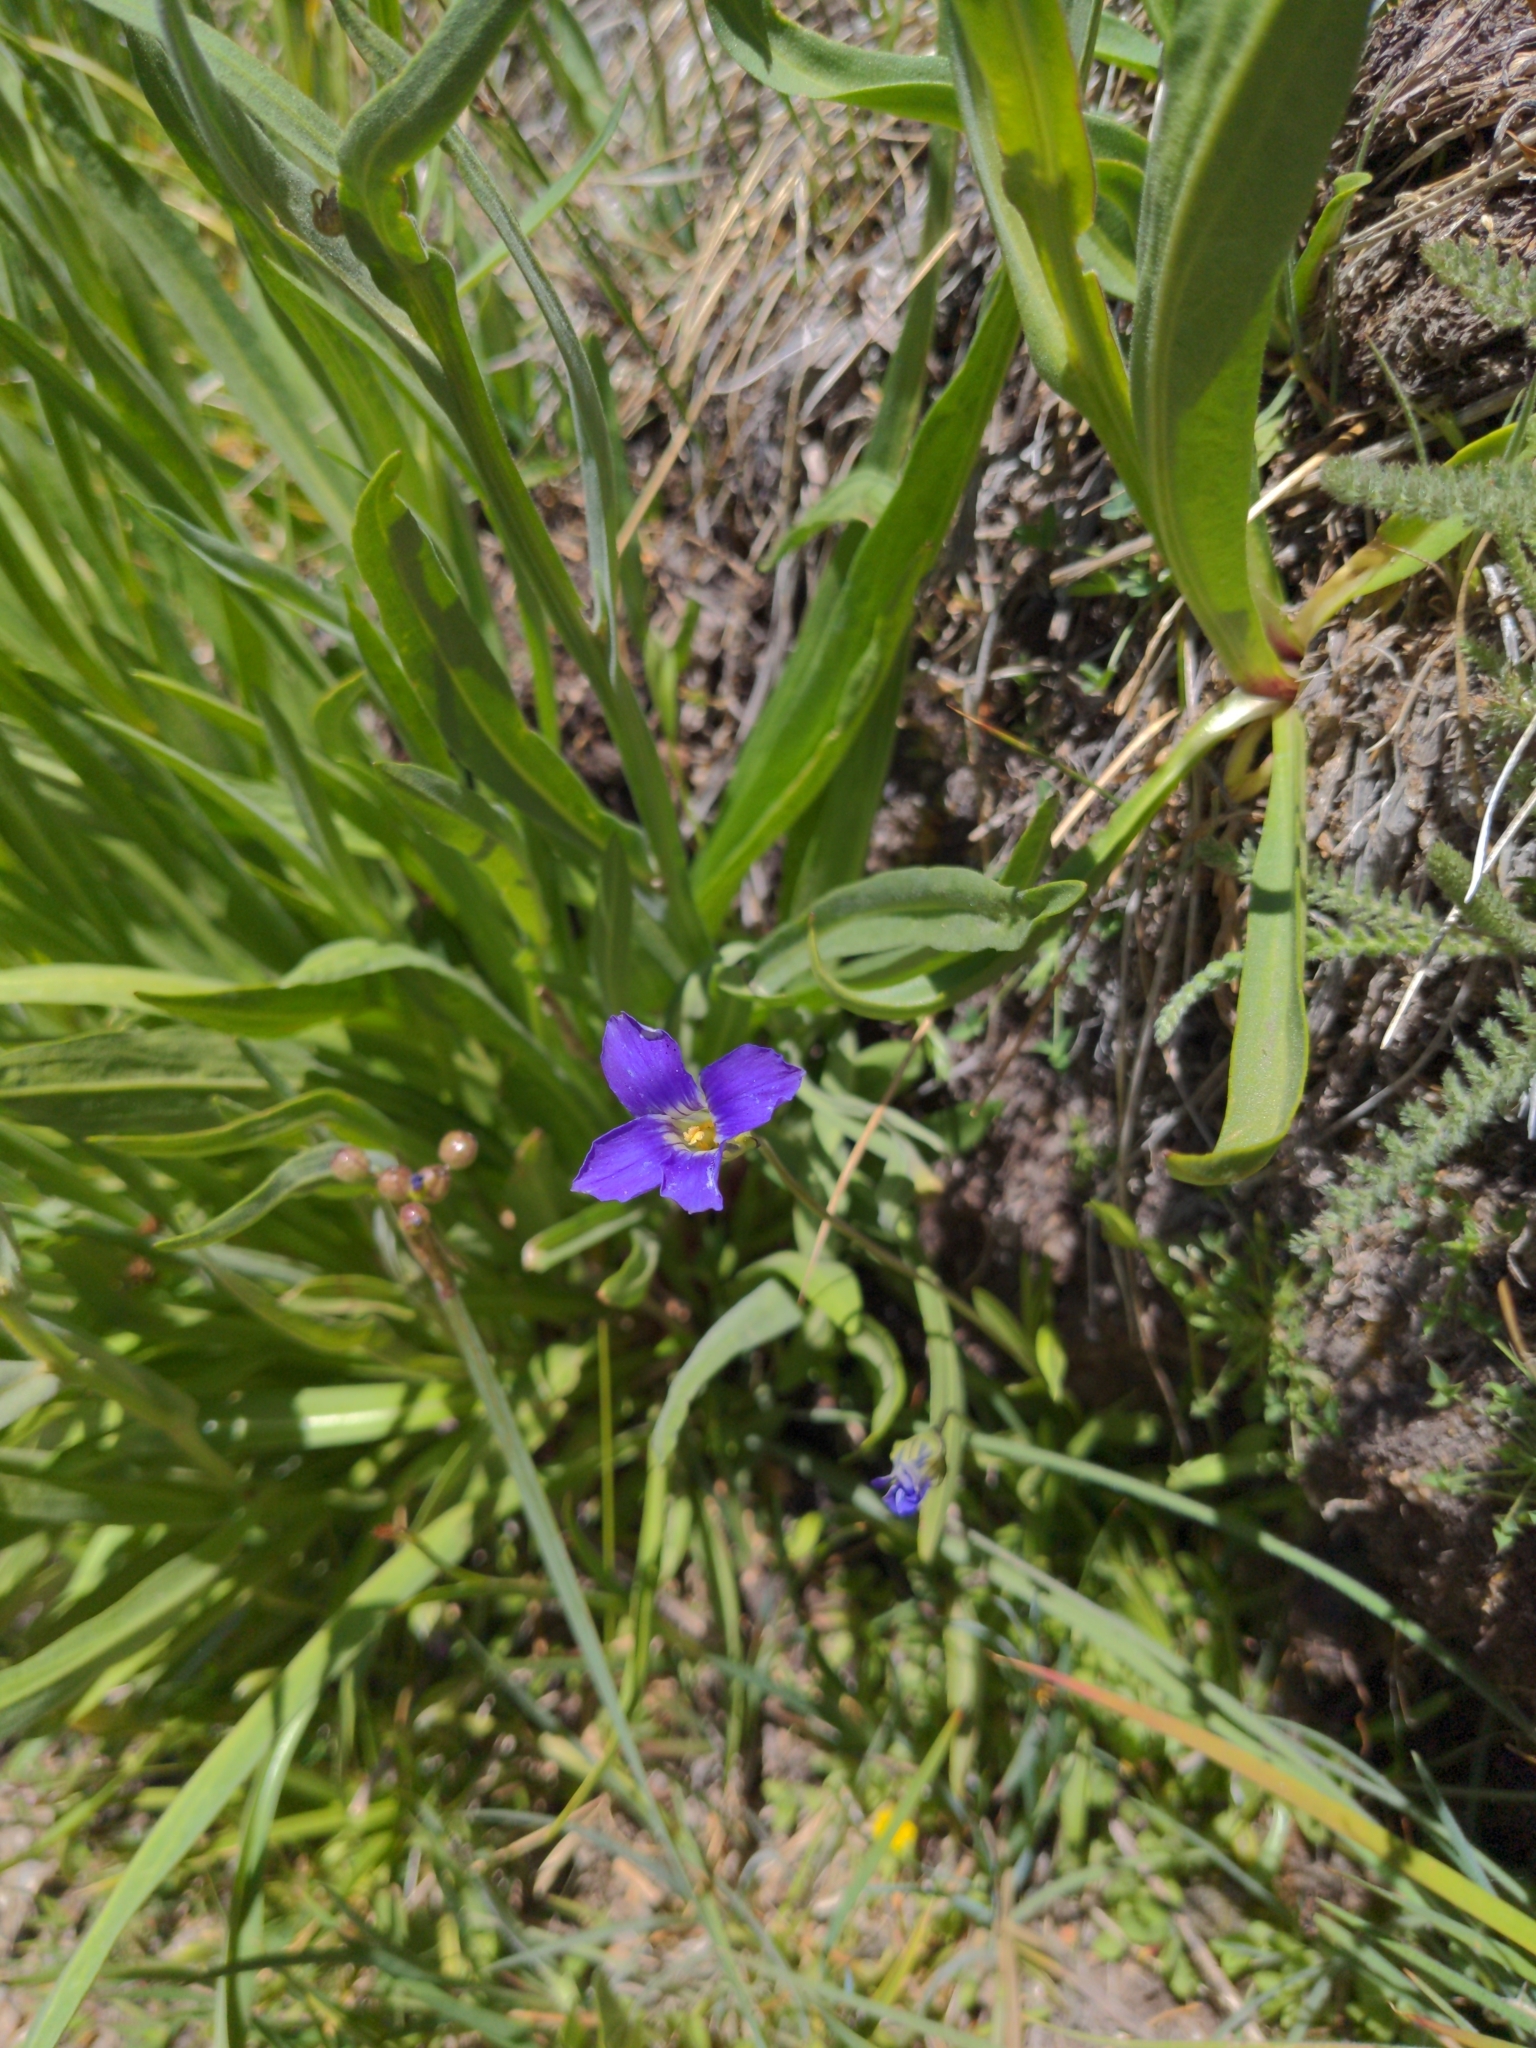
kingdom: Plantae
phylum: Tracheophyta
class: Magnoliopsida
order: Gentianales
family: Gentianaceae
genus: Gentianopsis
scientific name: Gentianopsis holopetala
